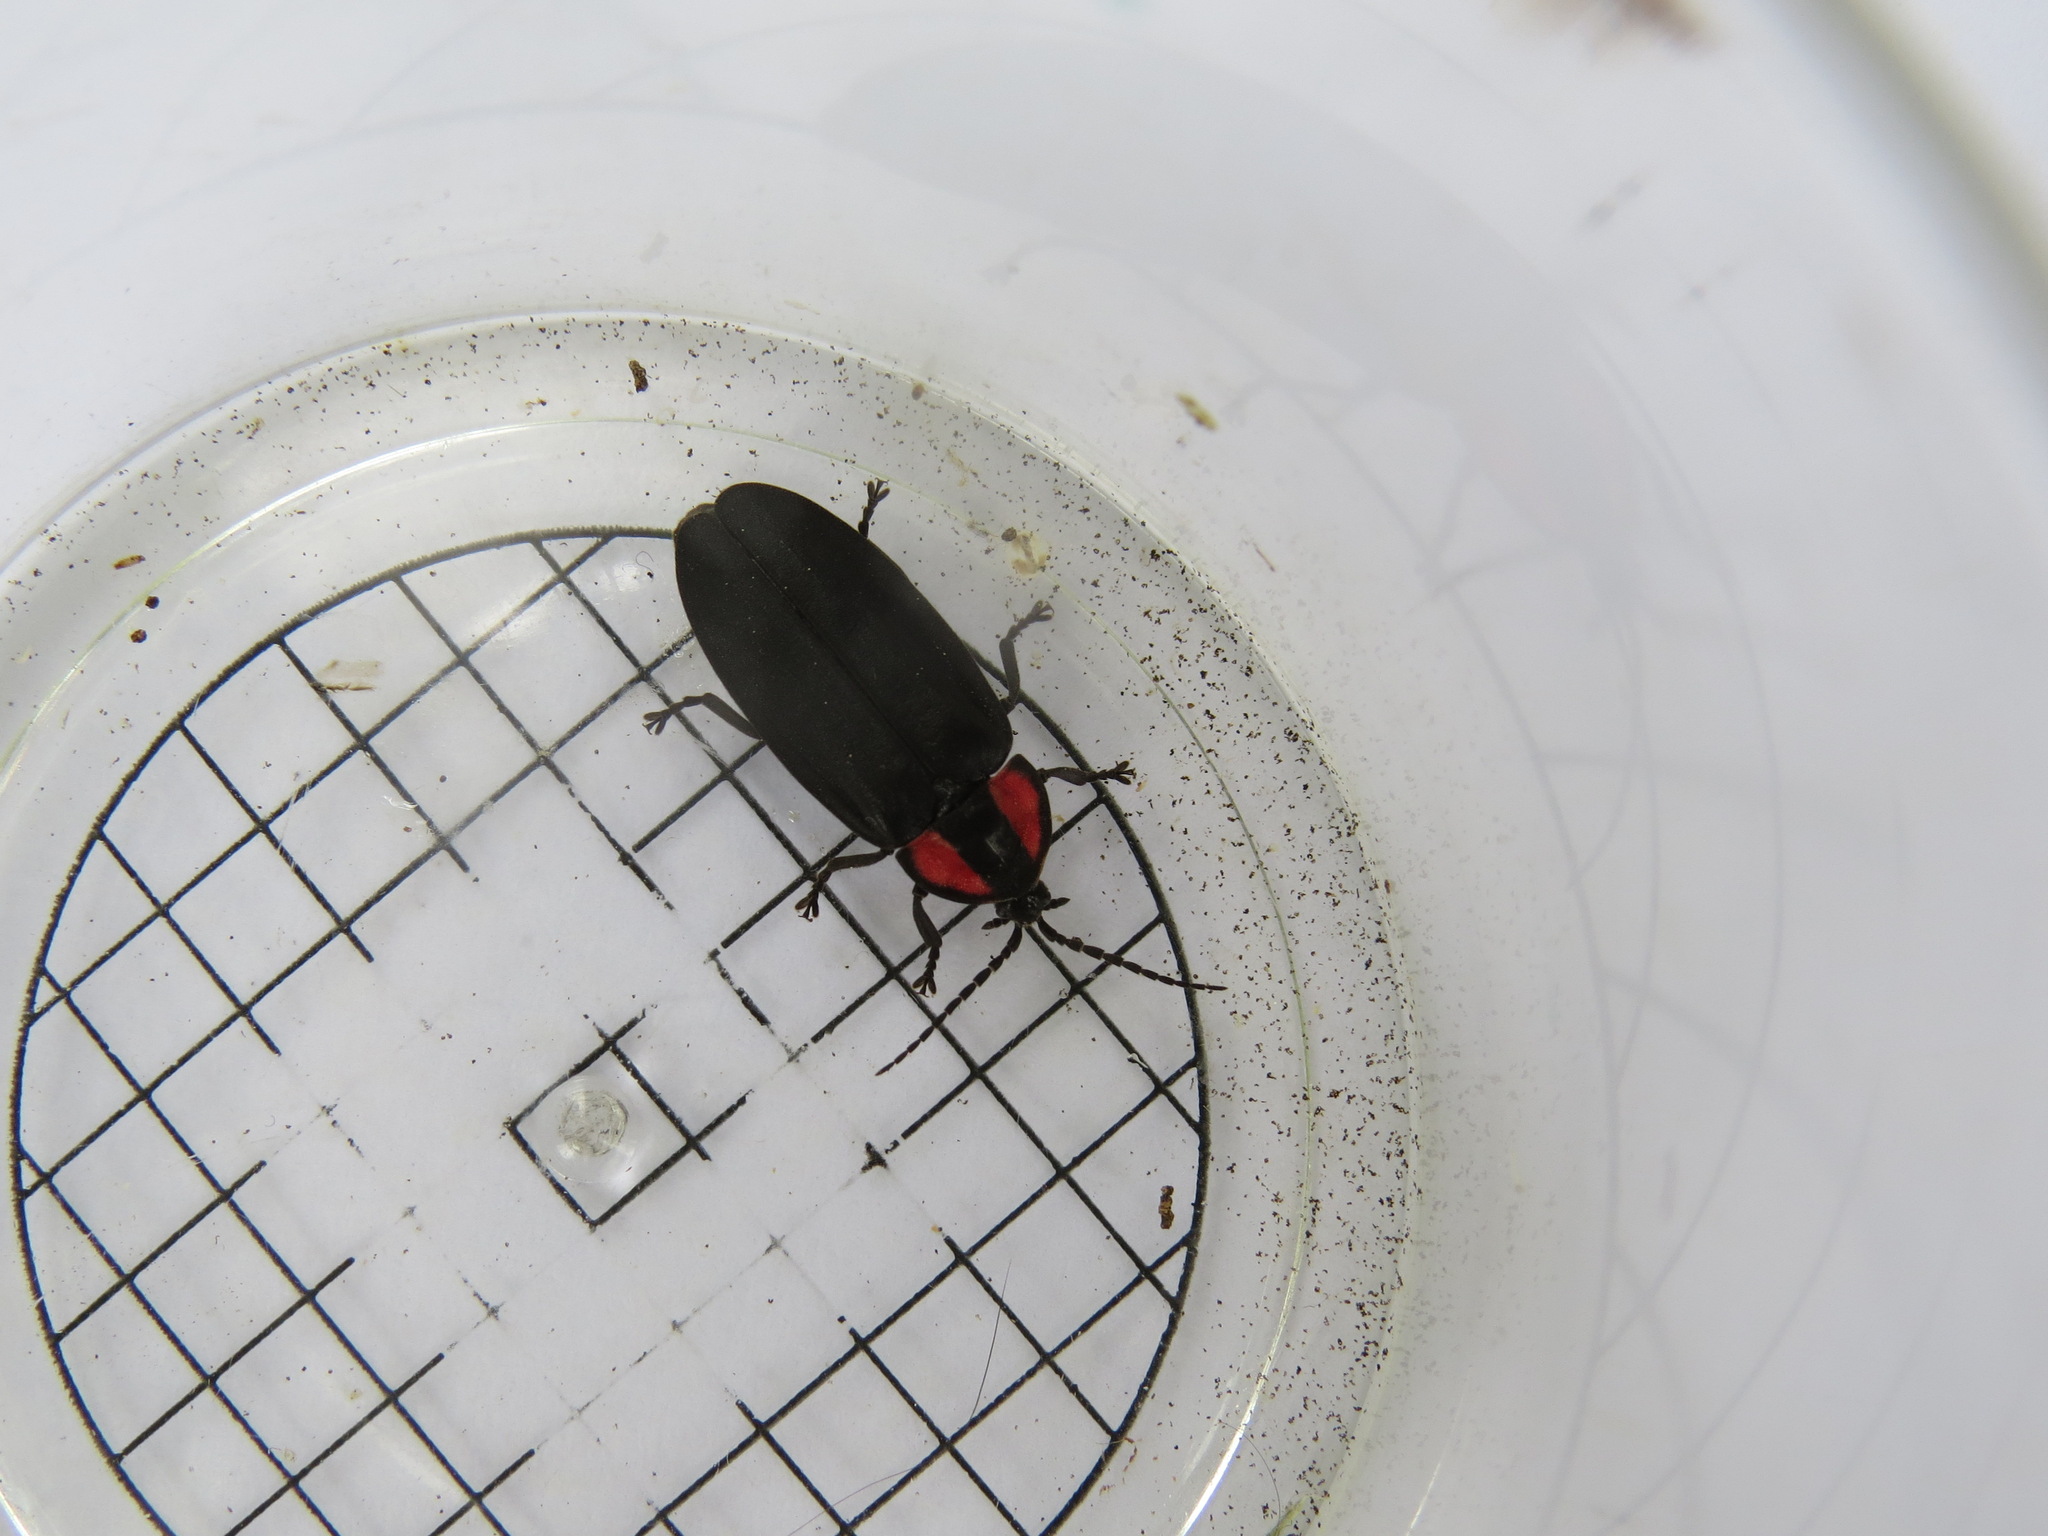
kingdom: Animalia
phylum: Arthropoda
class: Insecta
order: Coleoptera
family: Lampyridae
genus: Ellychnia
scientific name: Ellychnia megista
